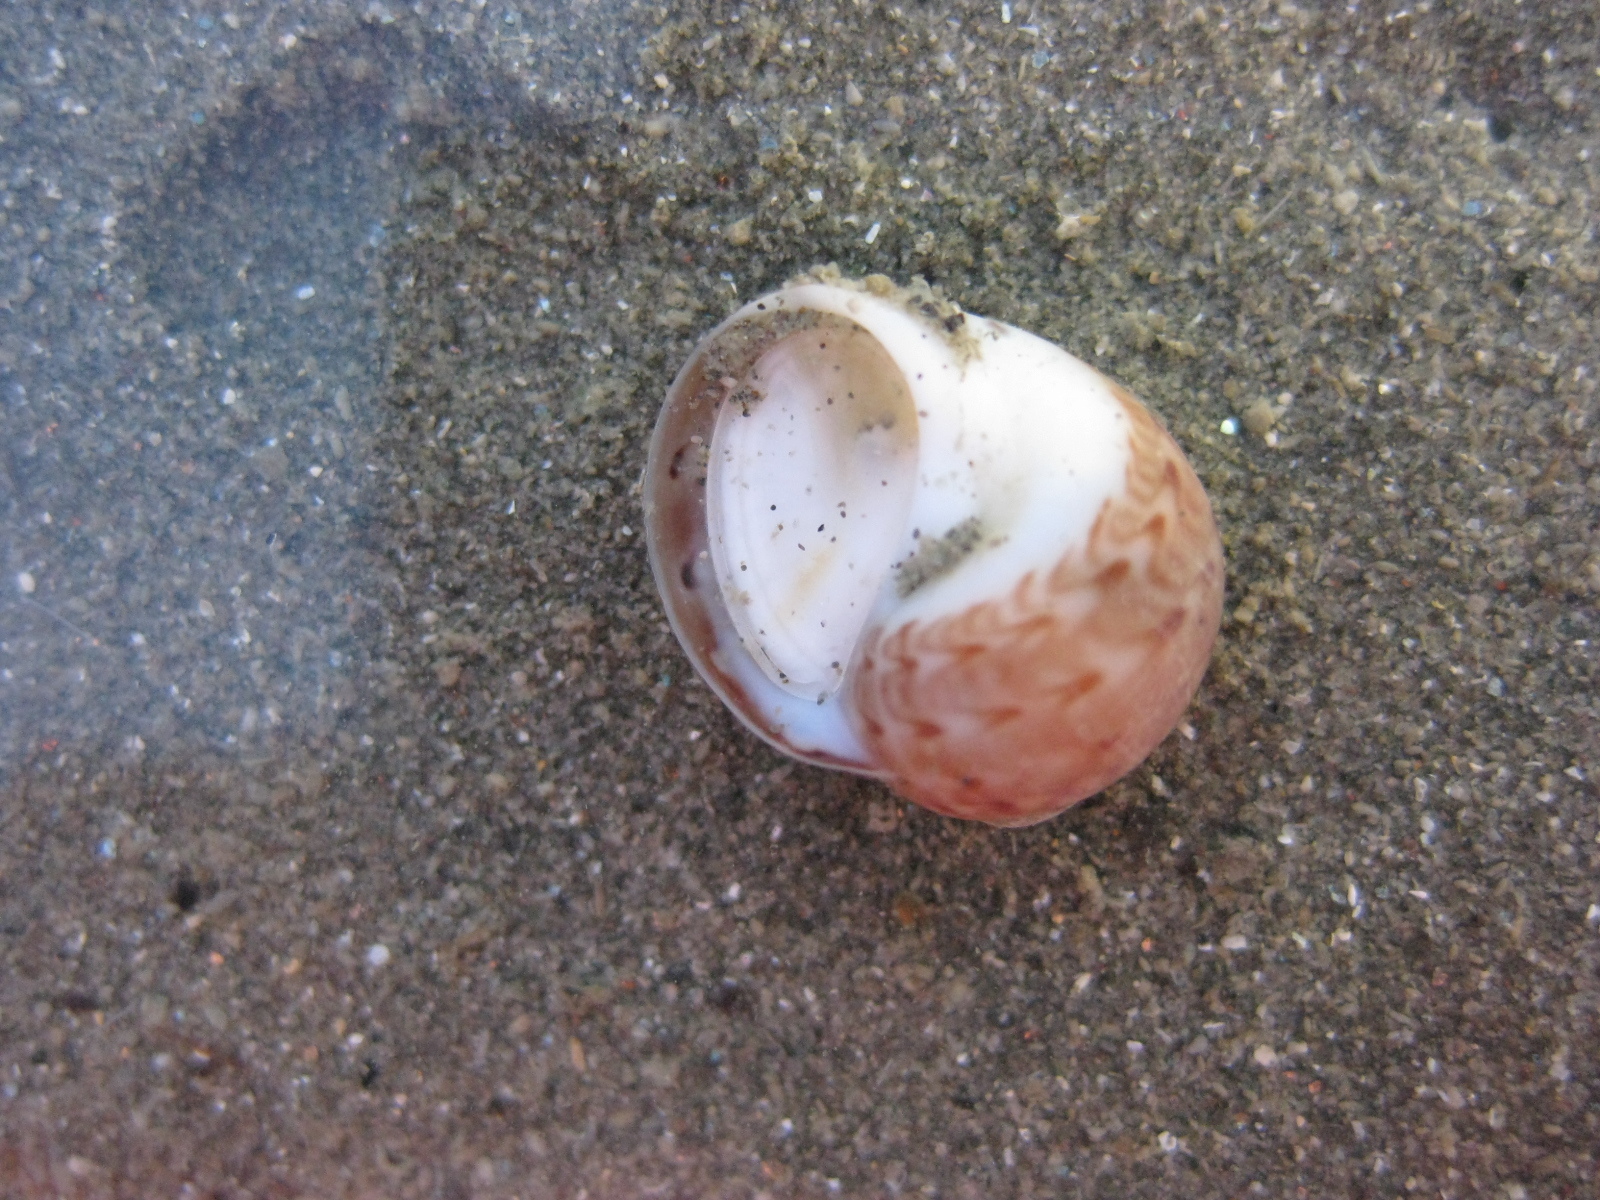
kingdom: Animalia
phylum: Mollusca
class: Gastropoda
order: Littorinimorpha
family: Naticidae
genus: Tanea
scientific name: Tanea zelandica
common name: New zealand moonsnail
